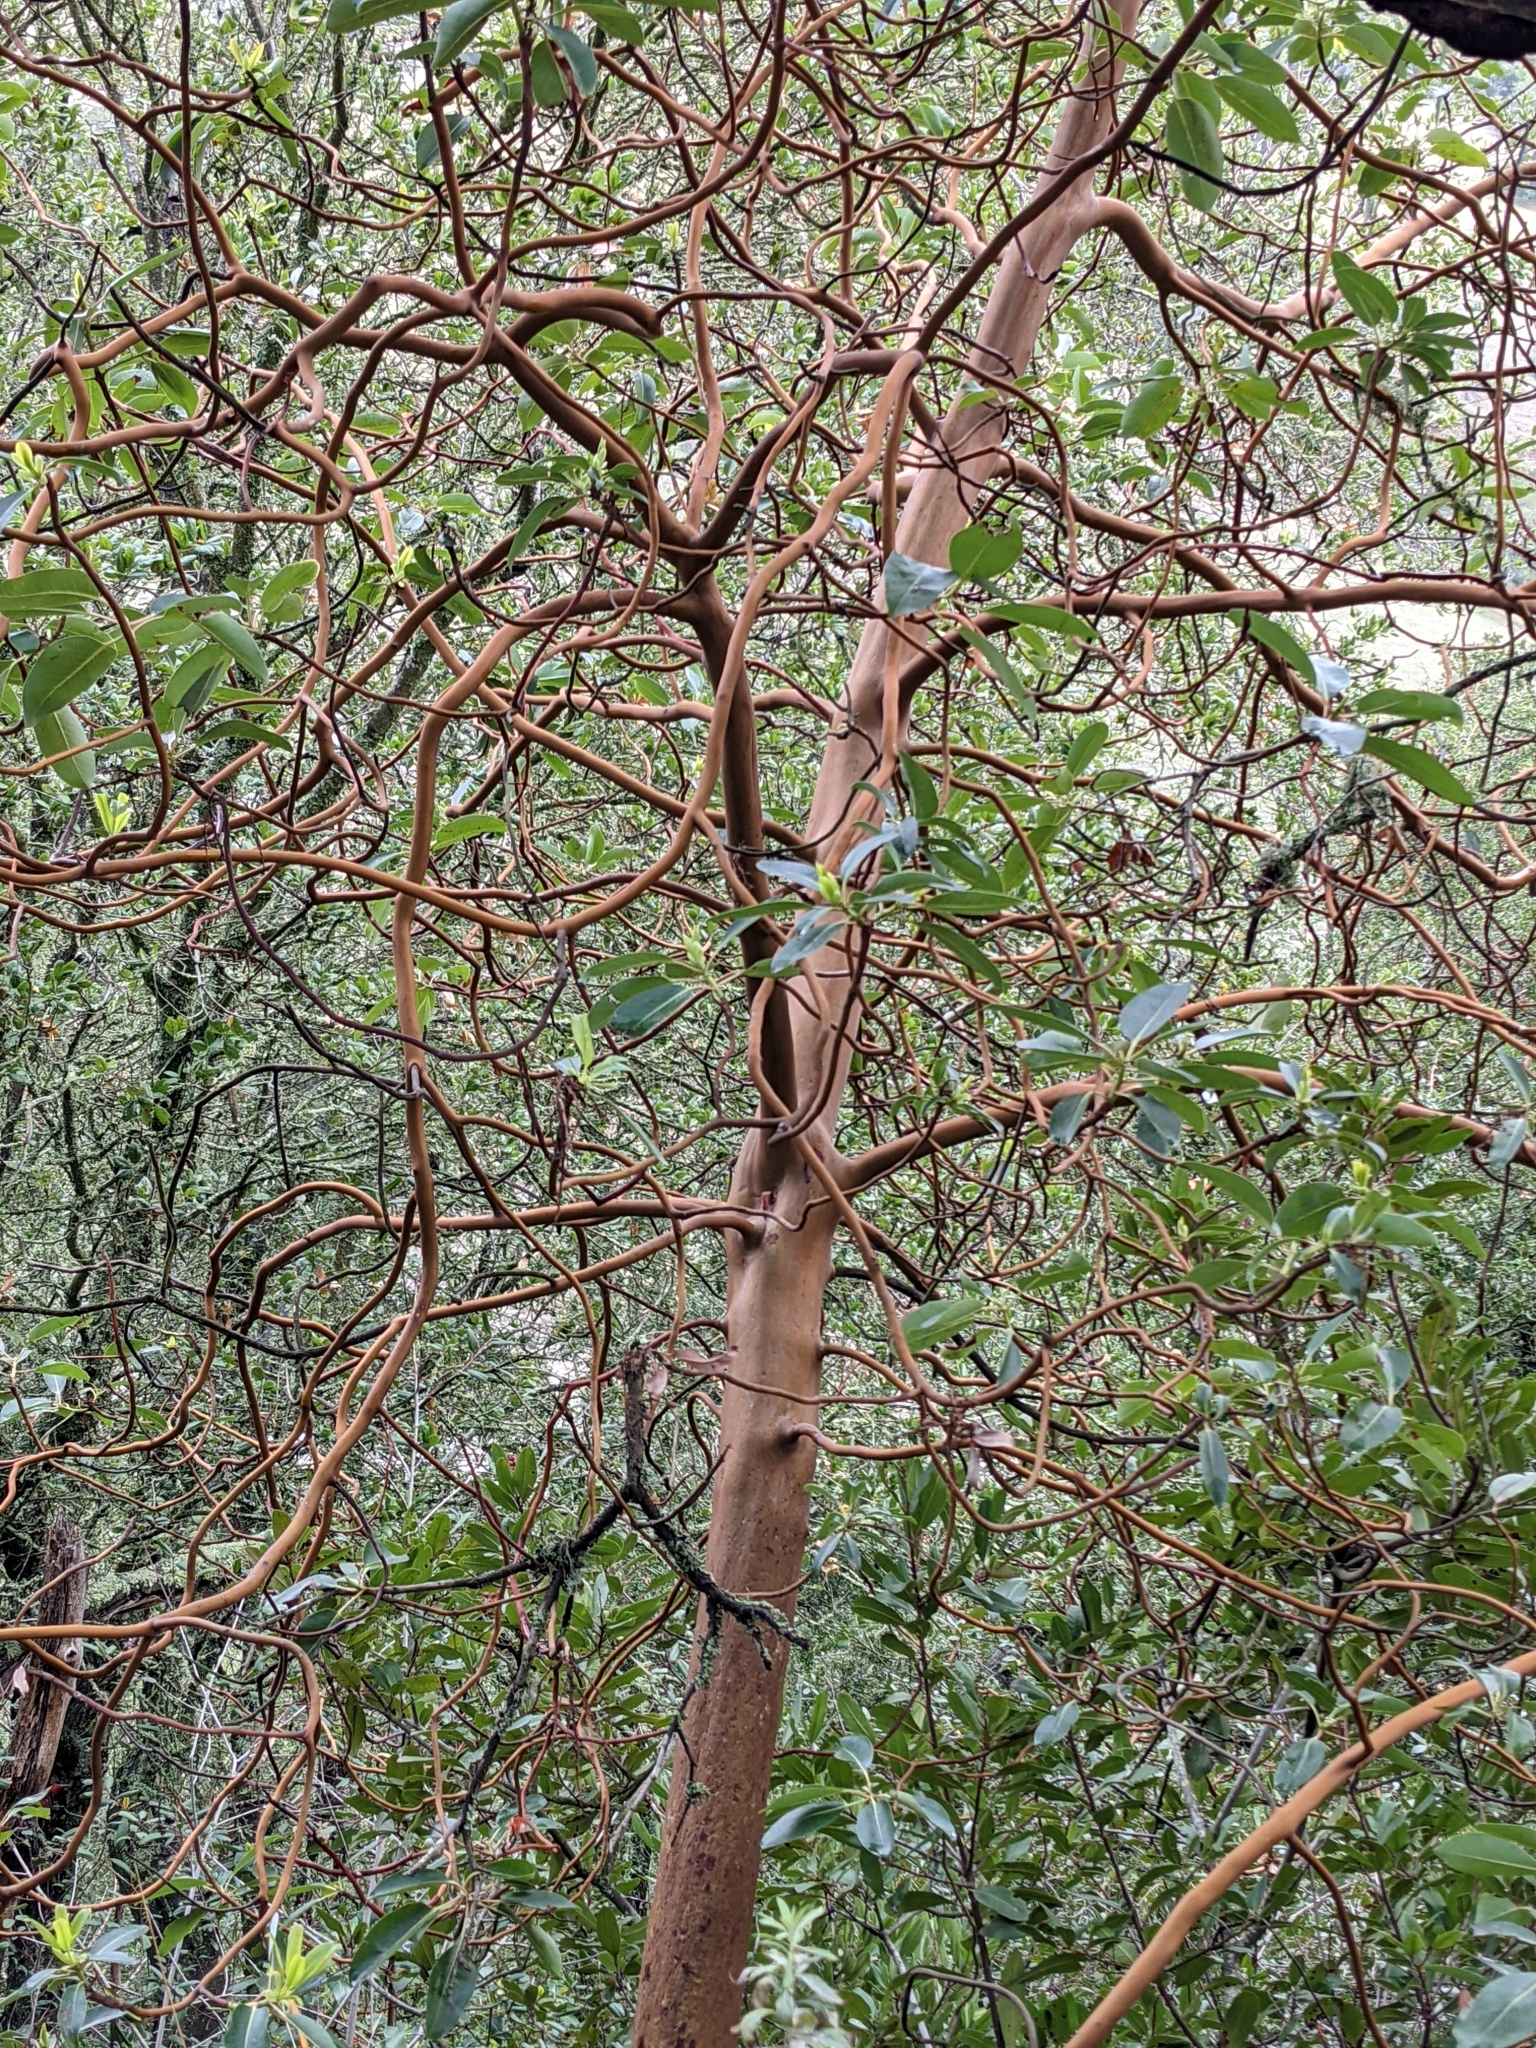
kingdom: Plantae
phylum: Tracheophyta
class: Magnoliopsida
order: Ericales
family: Ericaceae
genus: Arbutus
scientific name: Arbutus menziesii
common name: Pacific madrone
